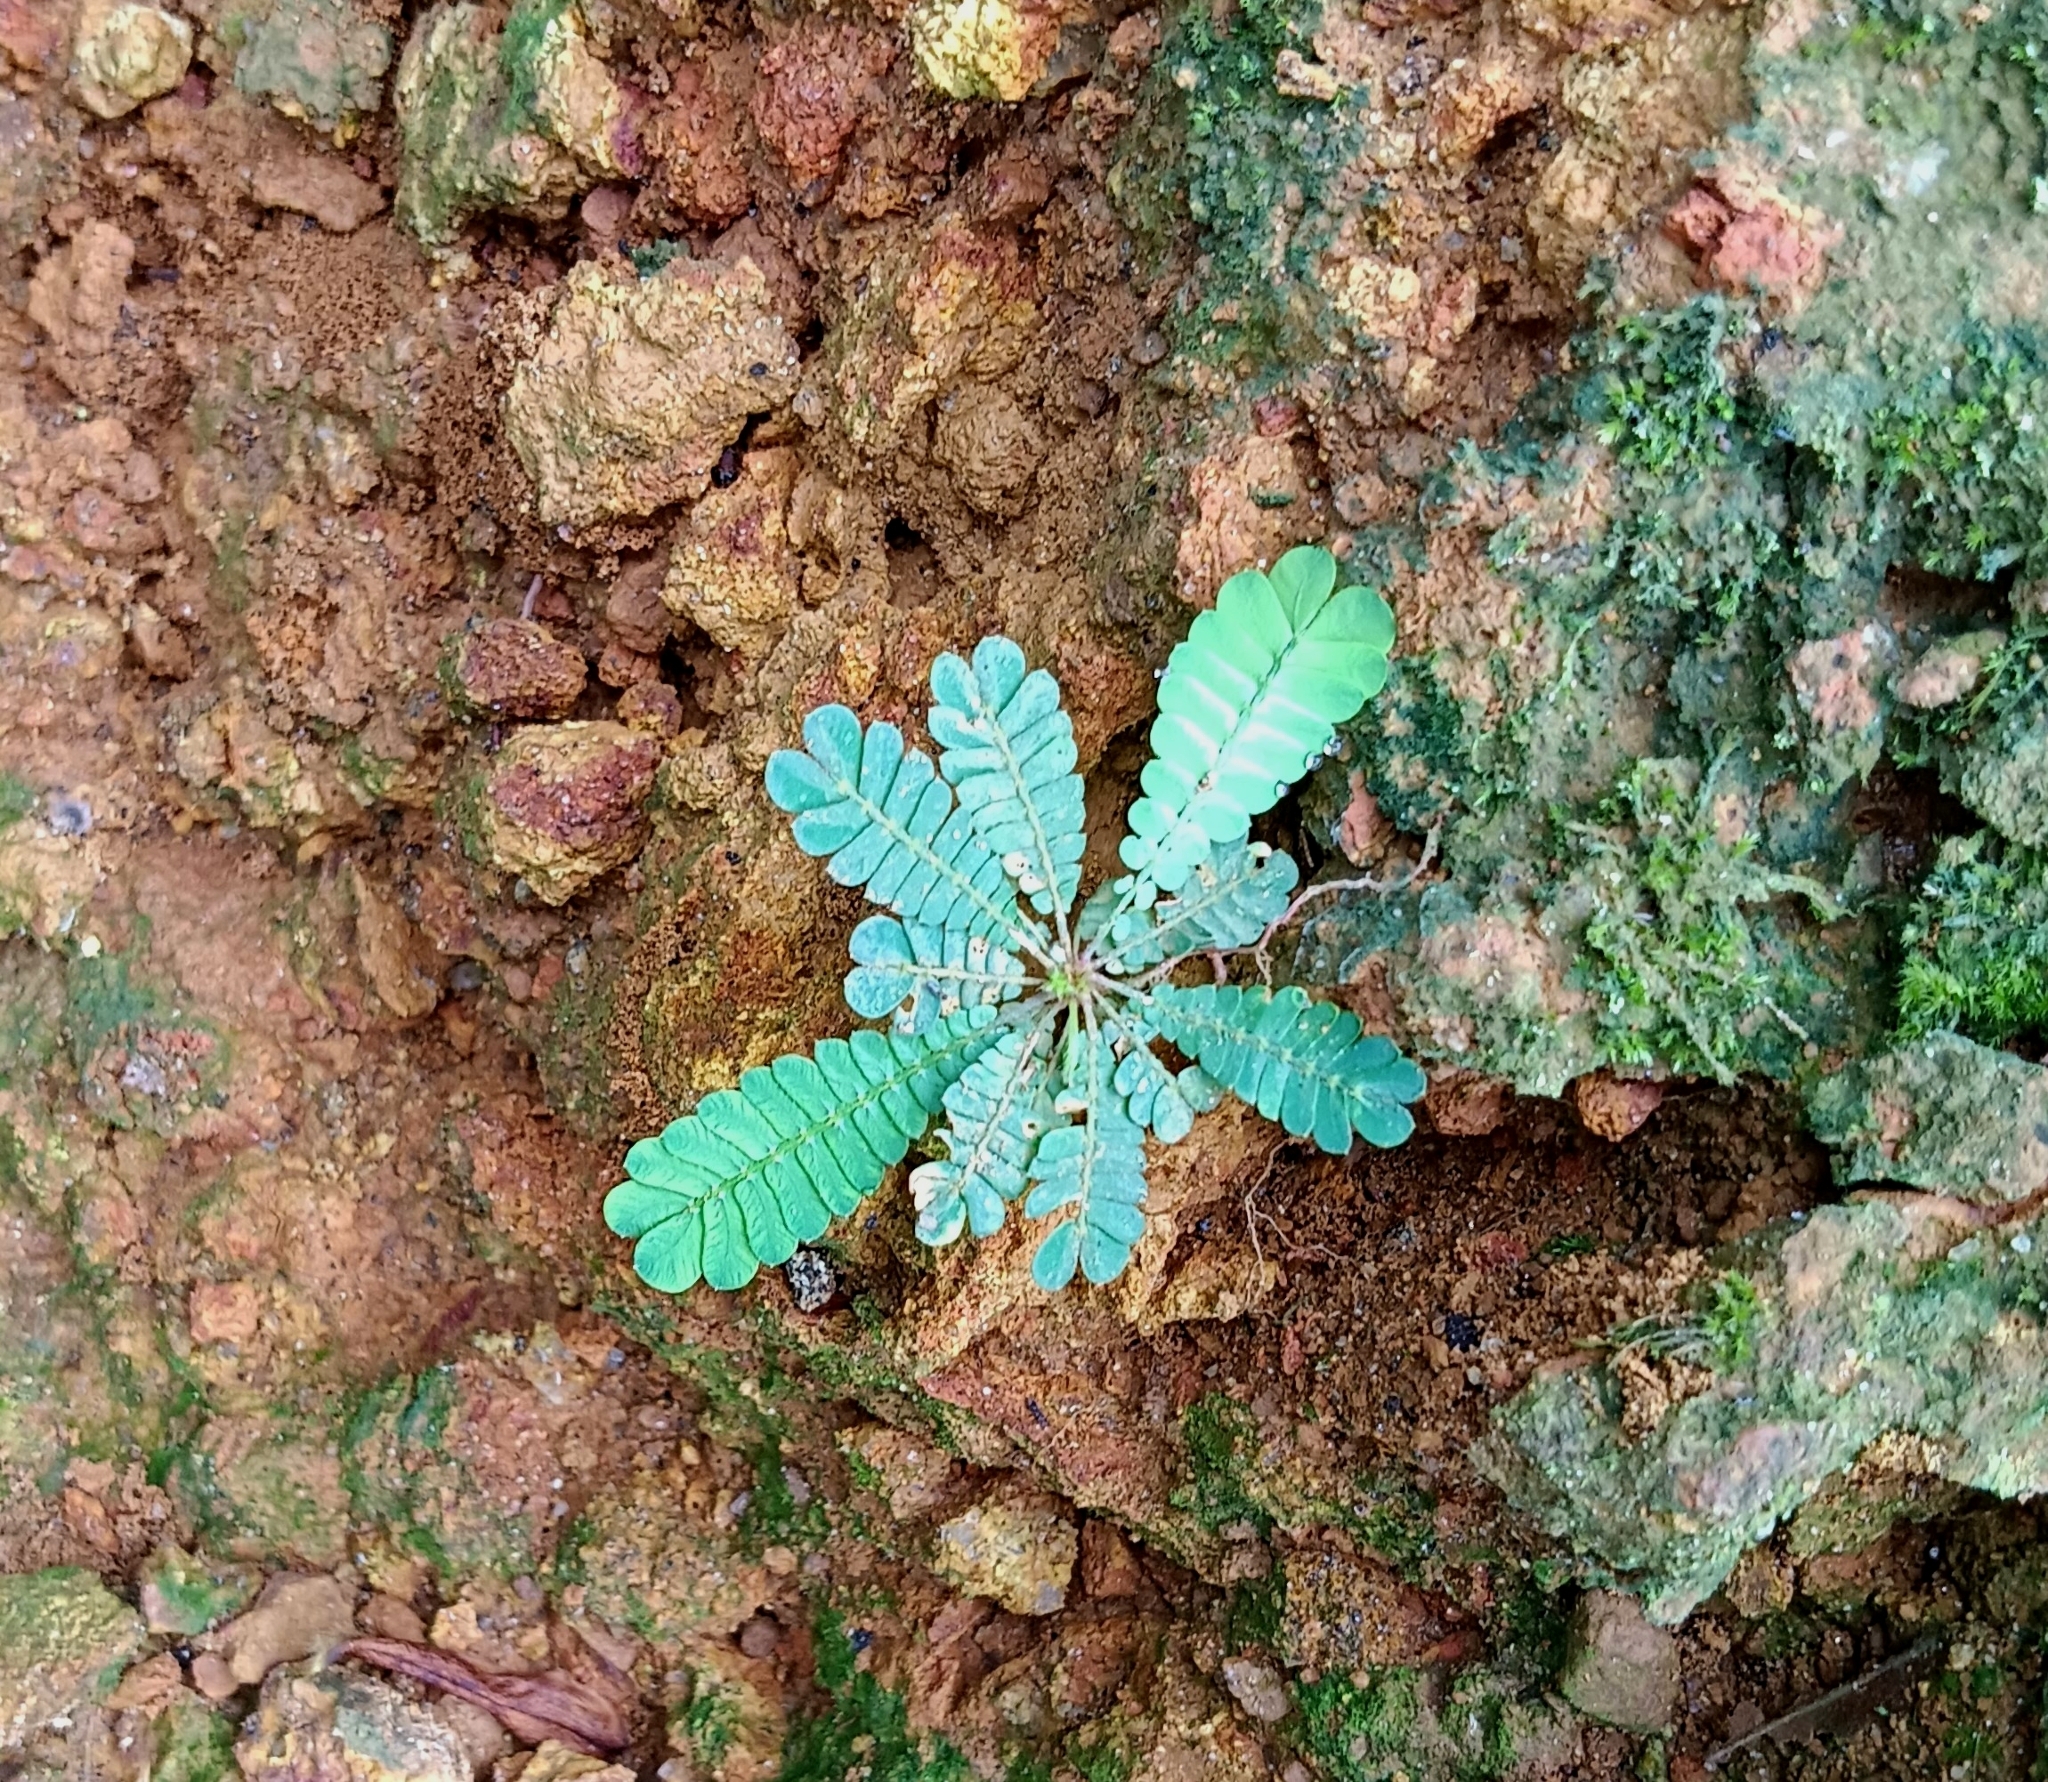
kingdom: Plantae
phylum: Tracheophyta
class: Magnoliopsida
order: Oxalidales
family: Oxalidaceae
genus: Biophytum
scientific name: Biophytum sensitivum
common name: Lifeplant
